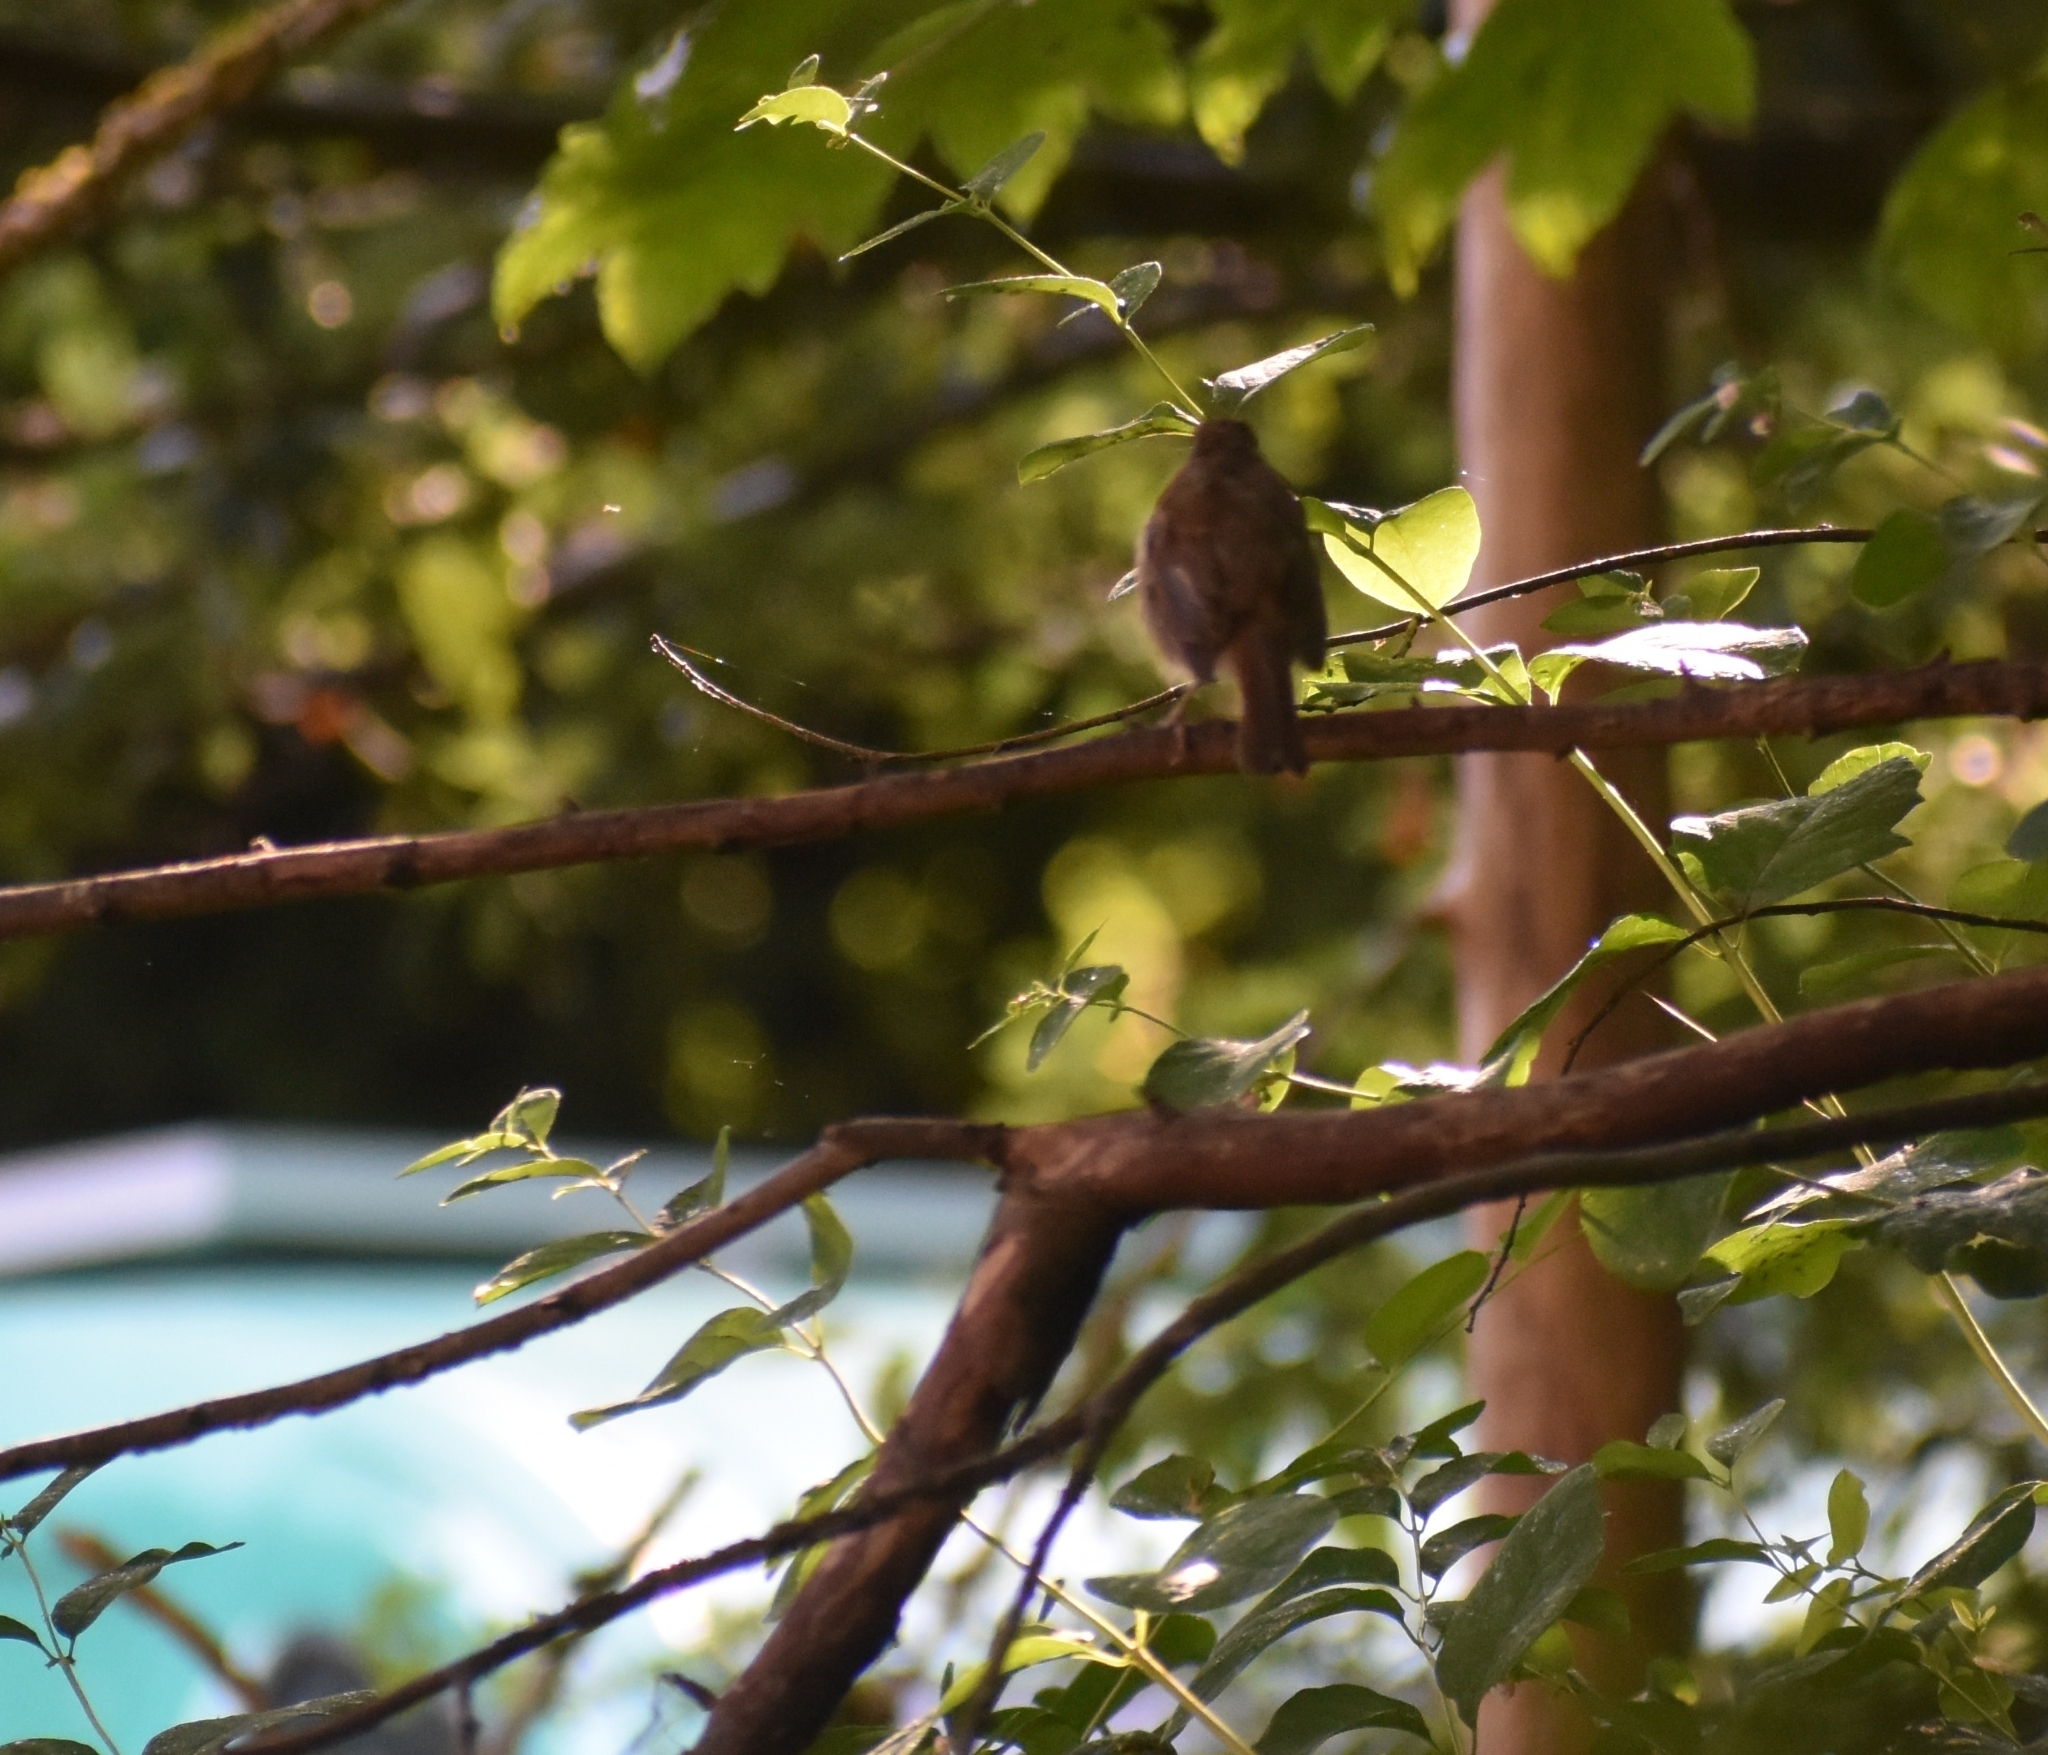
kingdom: Animalia
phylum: Chordata
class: Aves
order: Passeriformes
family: Muscicapidae
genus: Erithacus
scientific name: Erithacus rubecula
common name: European robin
